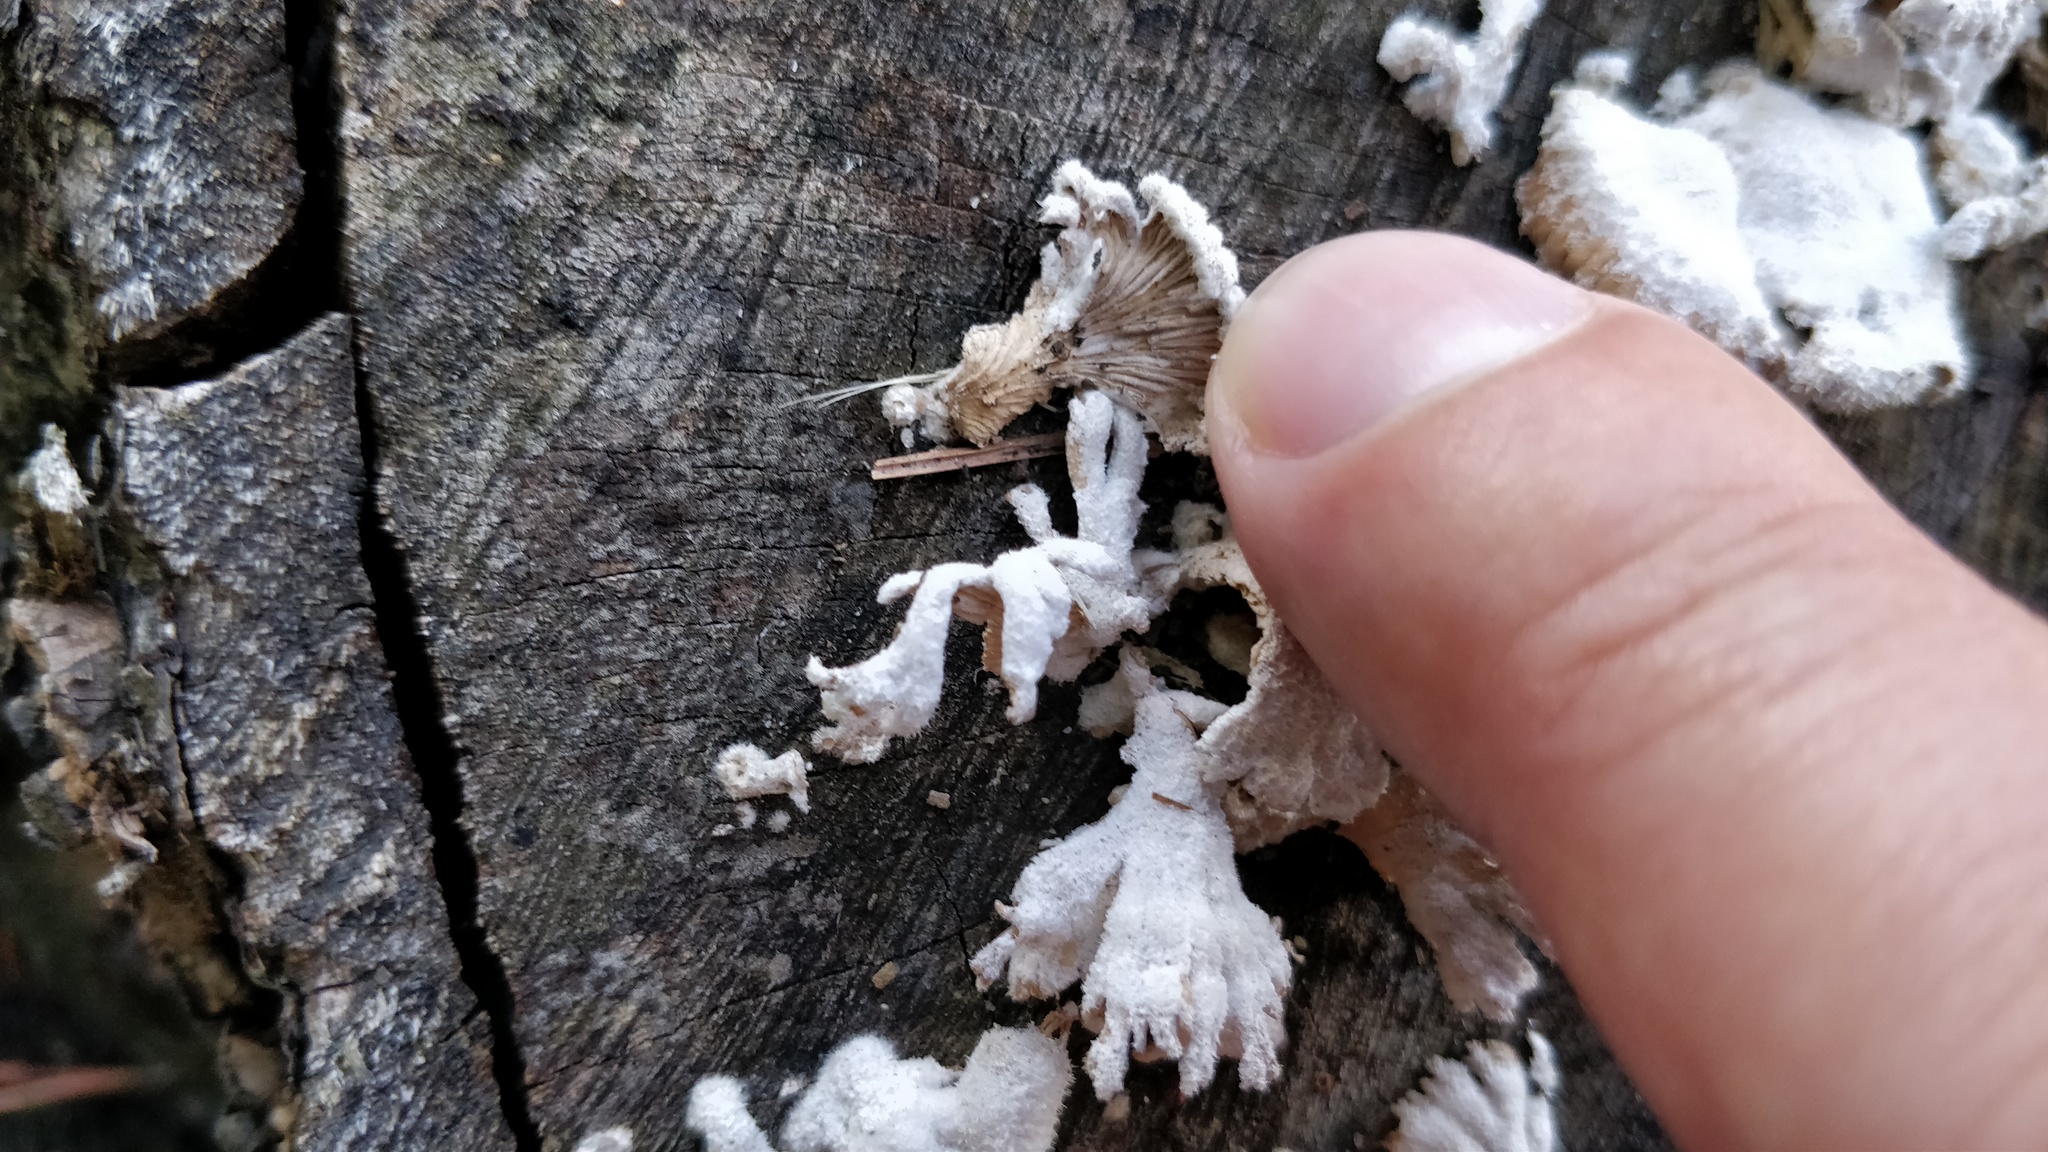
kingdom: Fungi
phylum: Basidiomycota
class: Agaricomycetes
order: Agaricales
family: Schizophyllaceae
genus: Schizophyllum
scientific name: Schizophyllum commune
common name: Common porecrust
